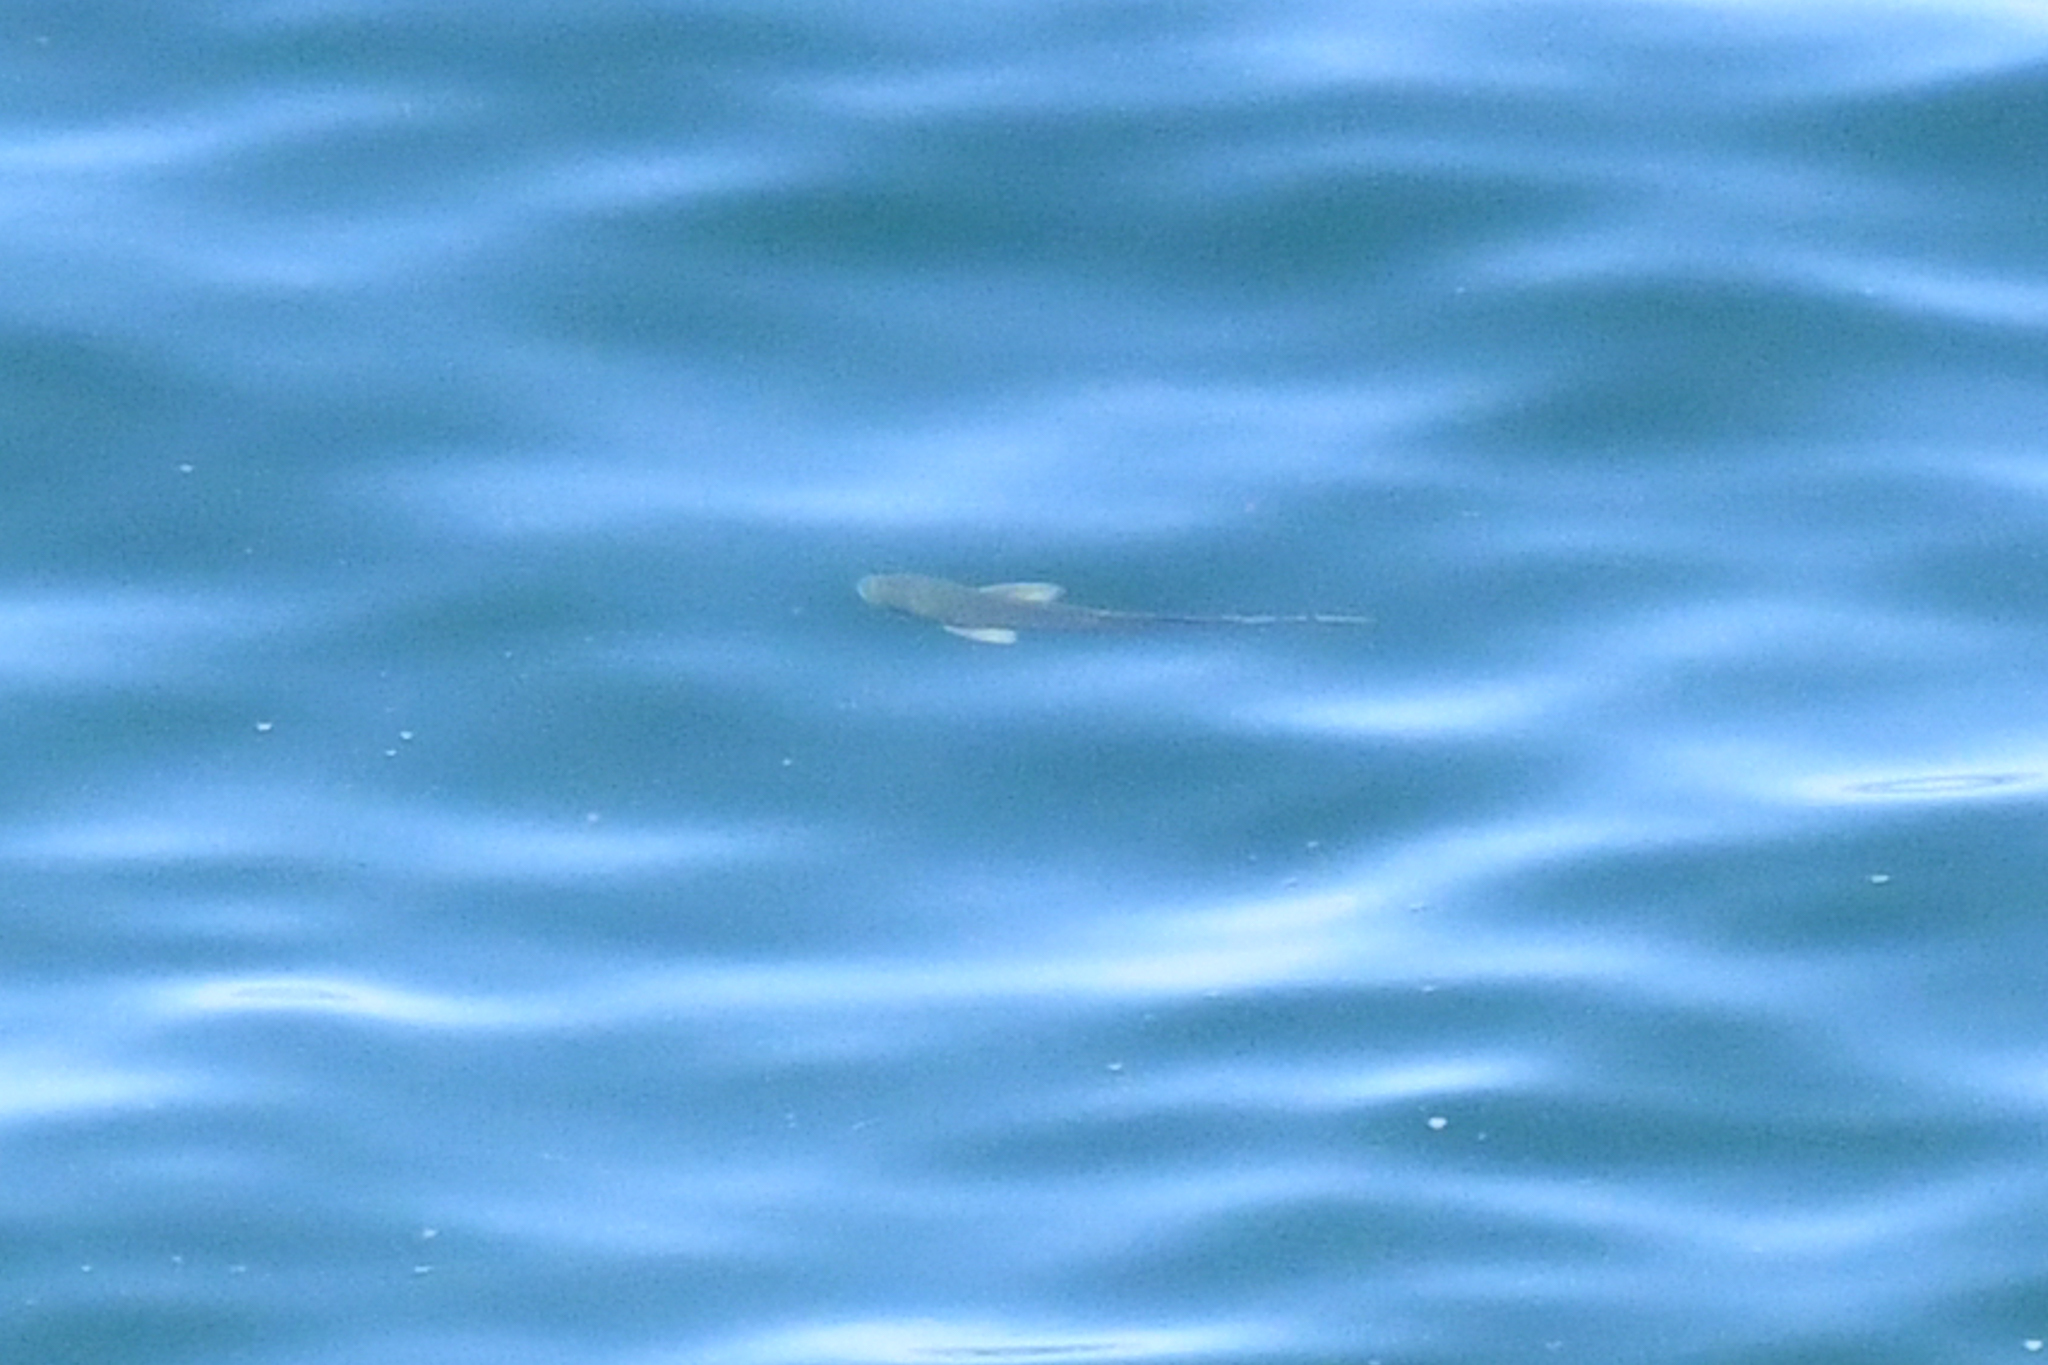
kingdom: Animalia
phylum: Chordata
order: Perciformes
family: Kyphosidae
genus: Girella
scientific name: Girella nigricans
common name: Opaleye
